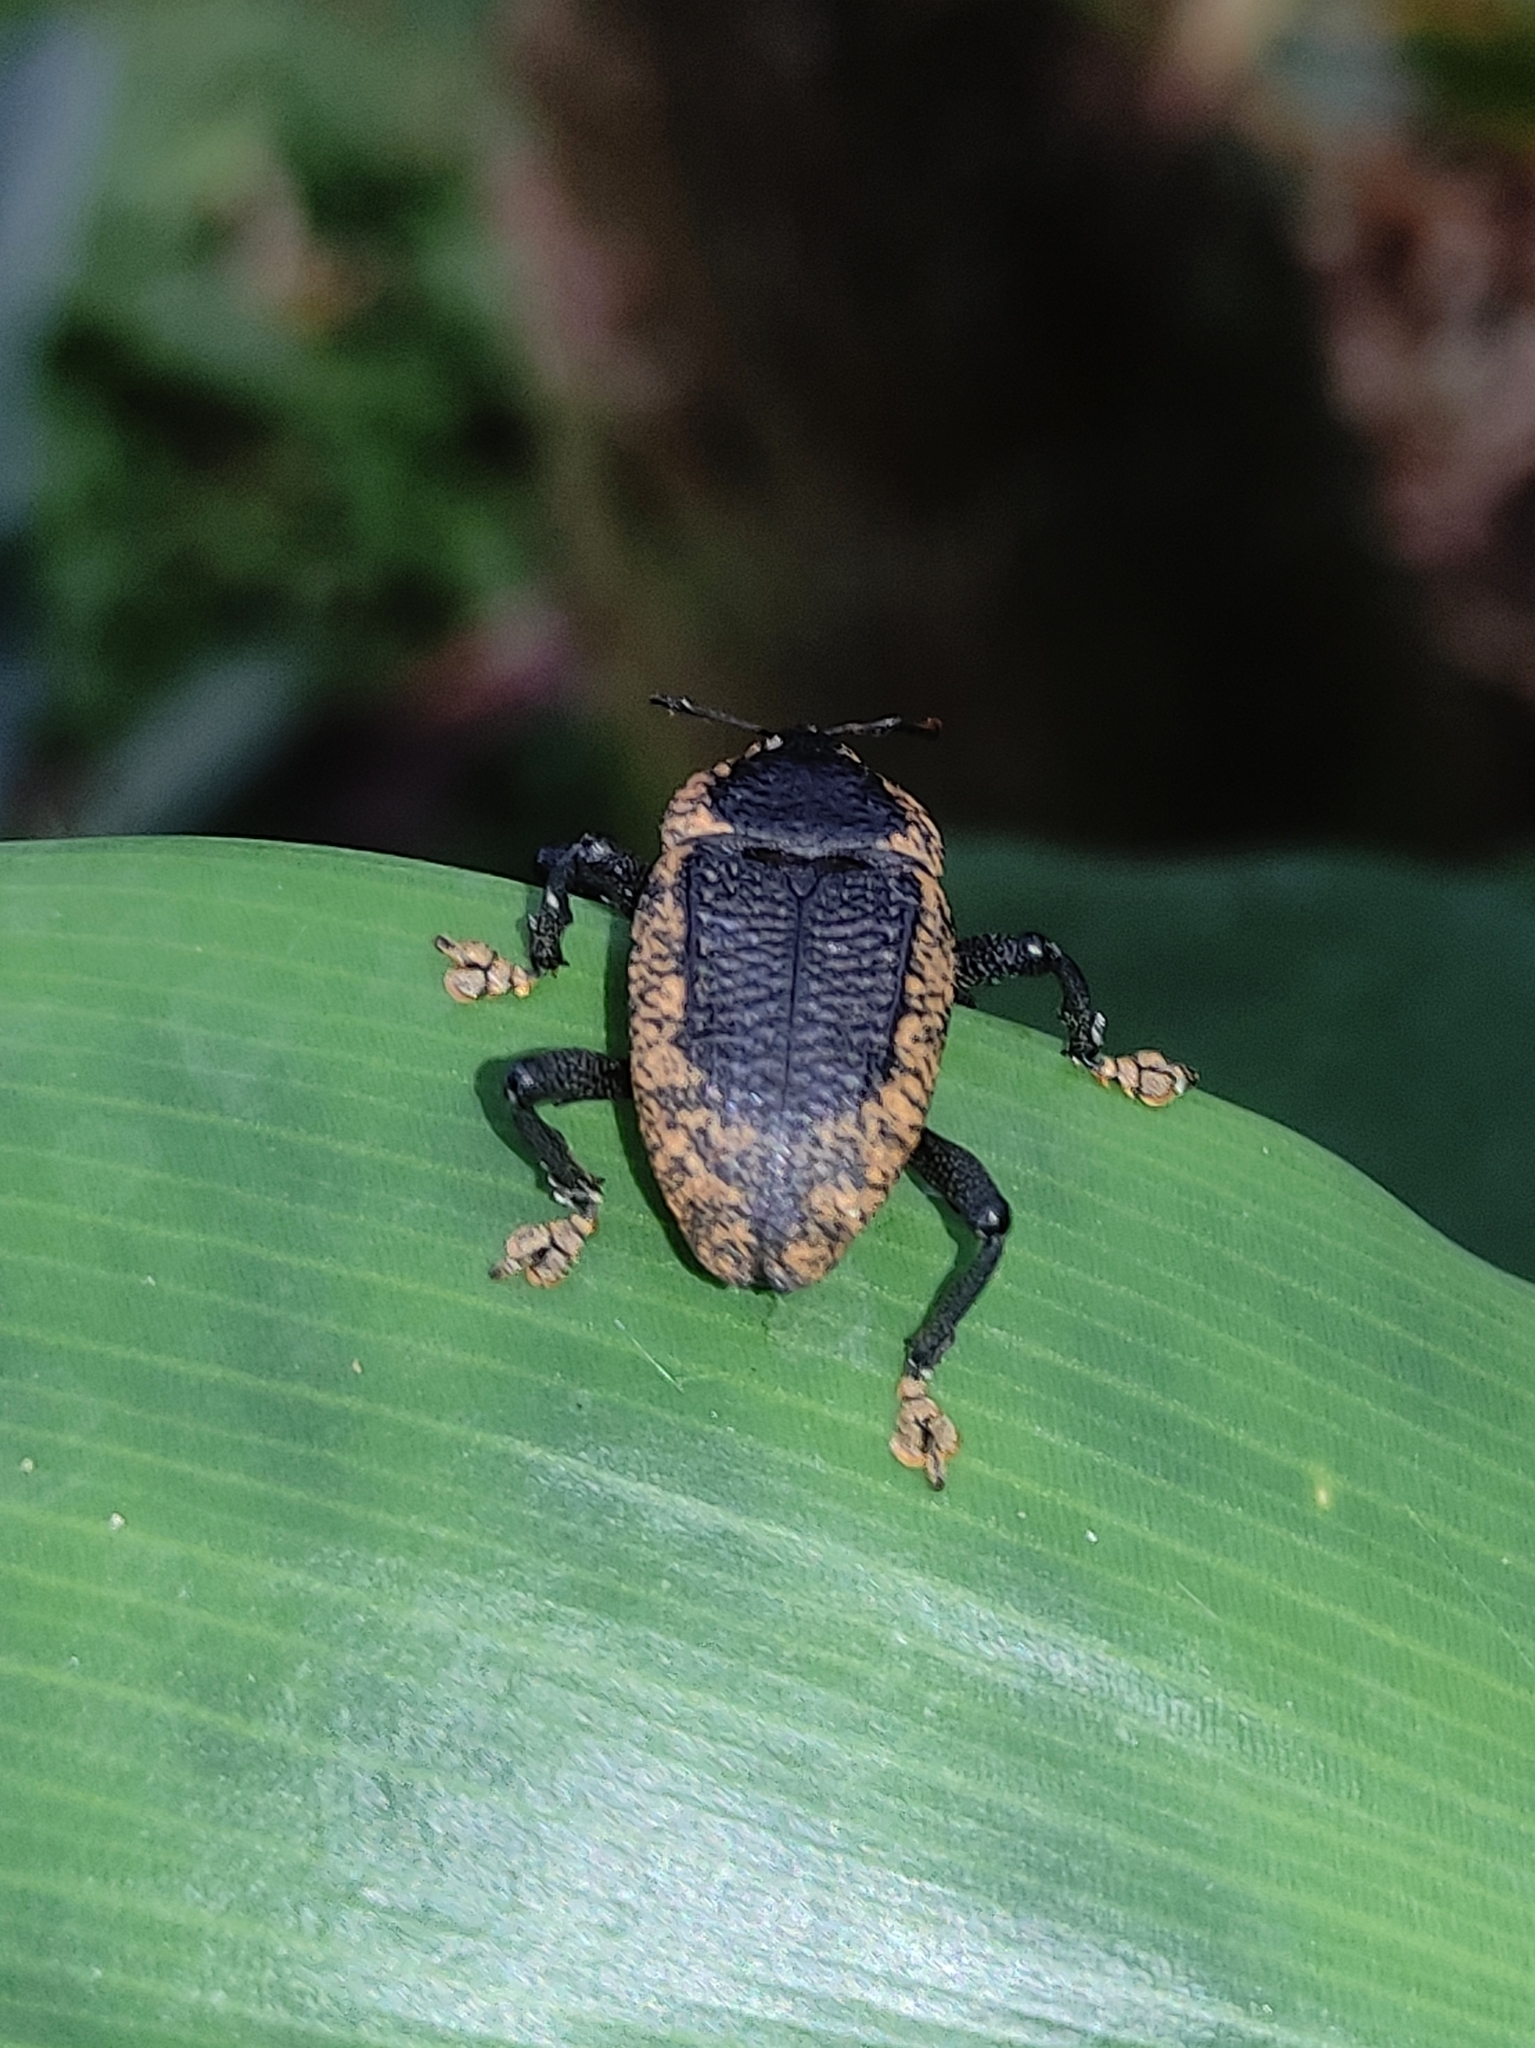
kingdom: Animalia
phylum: Arthropoda
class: Insecta
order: Coleoptera
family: Curculionidae
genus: Homalinotus
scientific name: Homalinotus deplanatus
